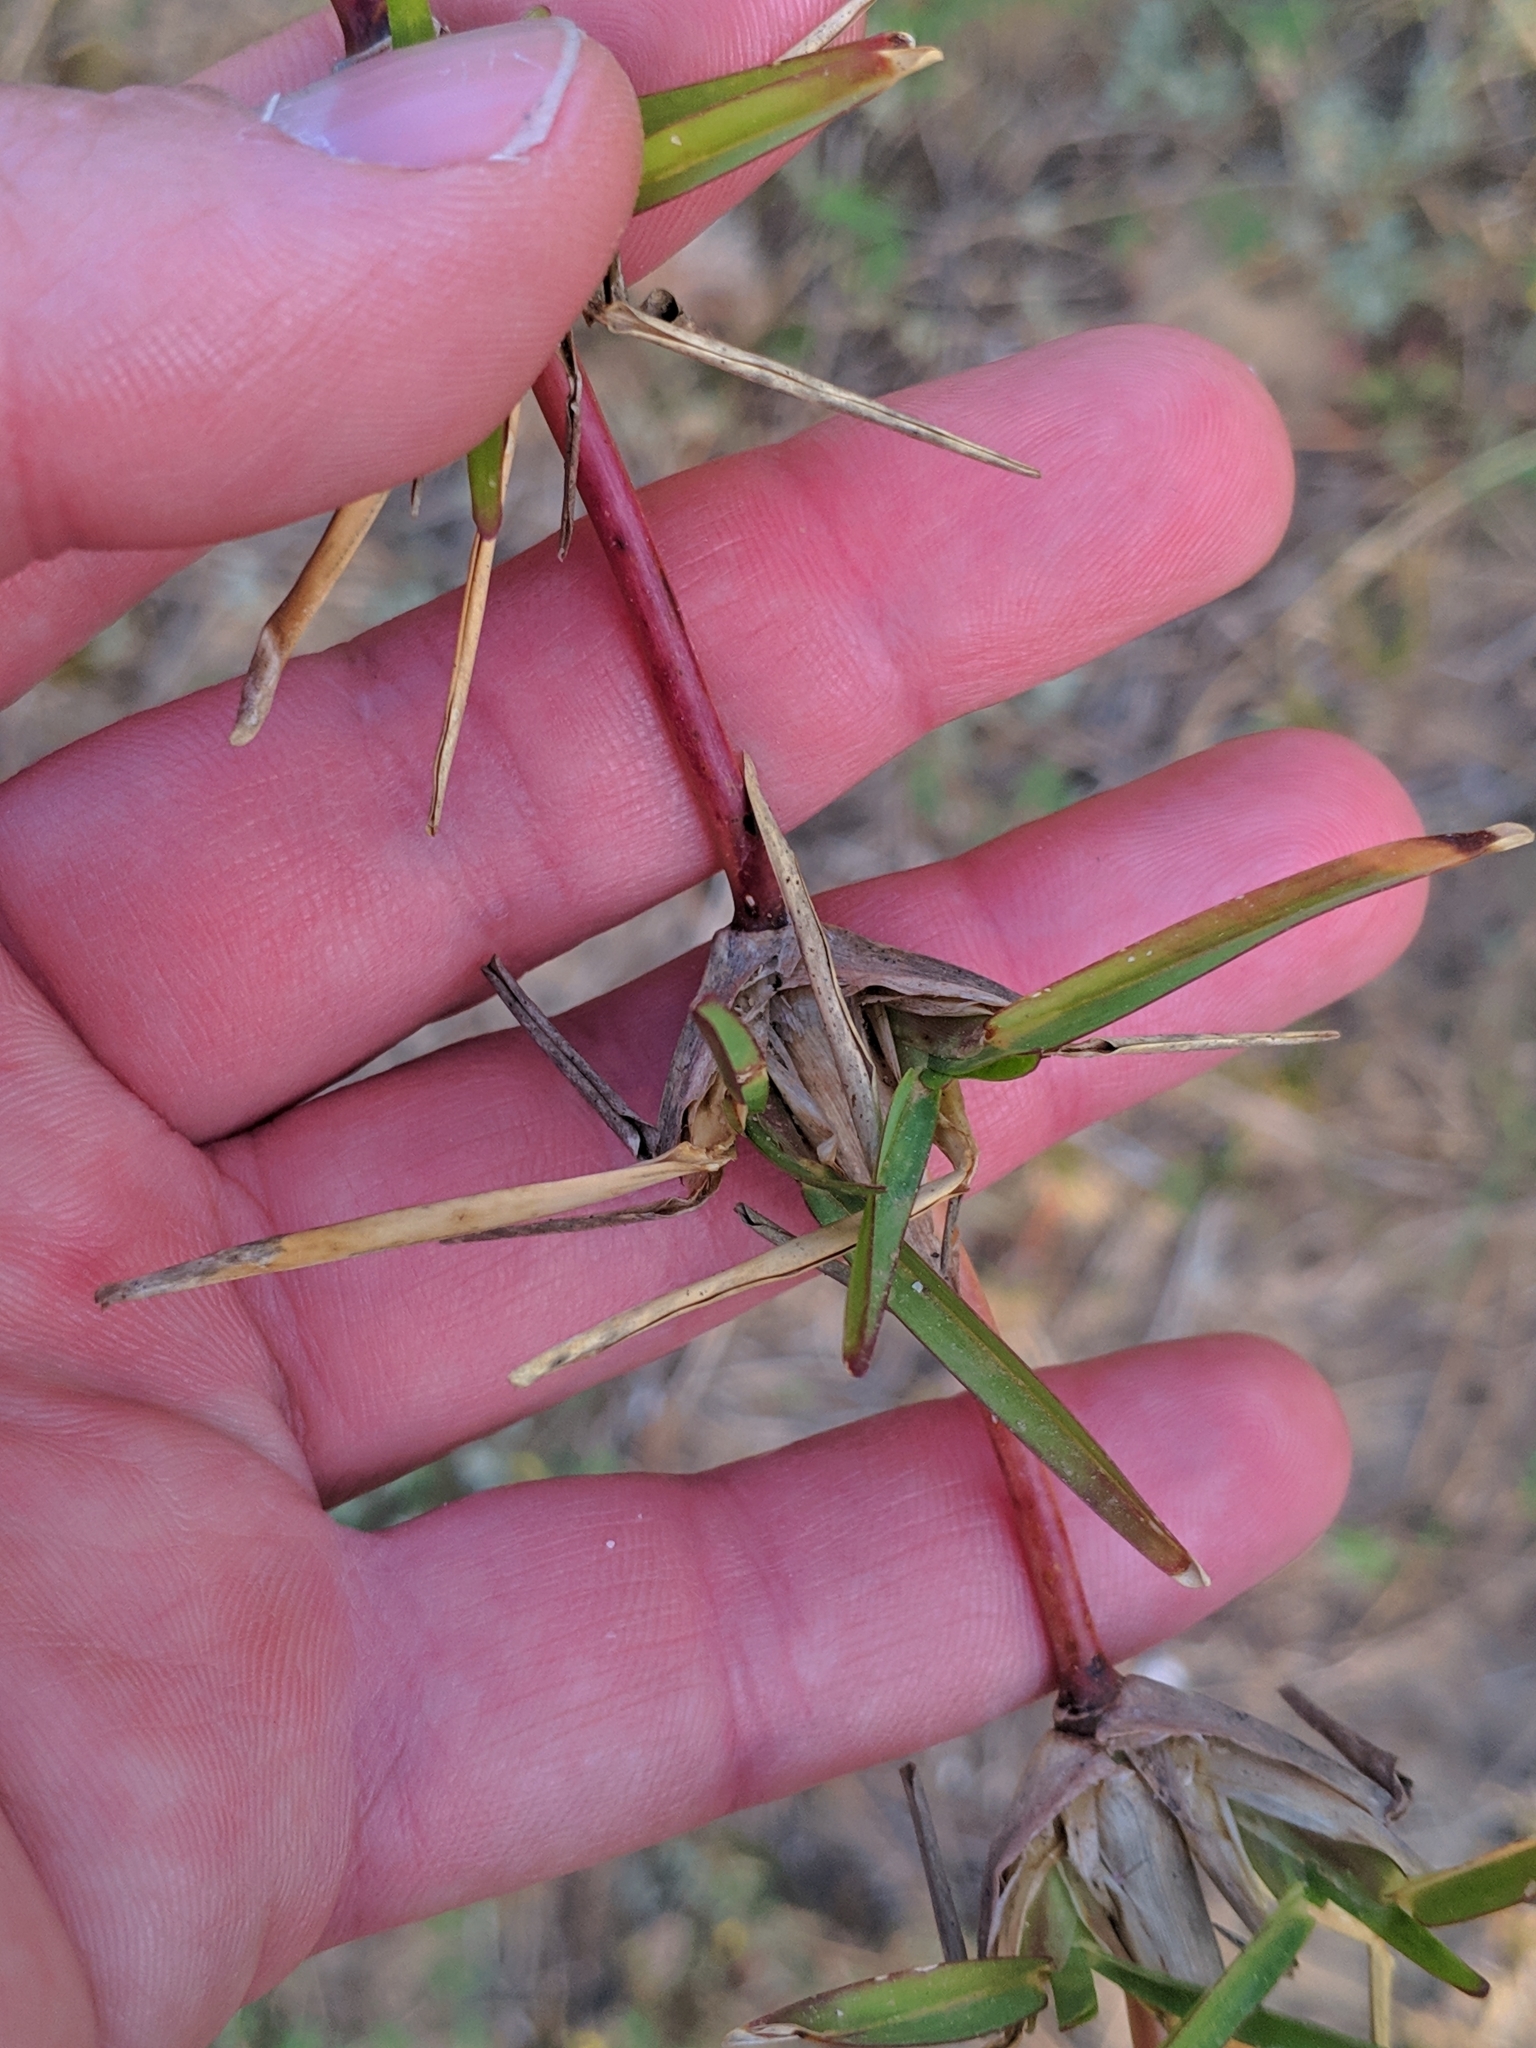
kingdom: Plantae
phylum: Tracheophyta
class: Liliopsida
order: Poales
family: Poaceae
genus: Stenotaphrum
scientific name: Stenotaphrum secundatum
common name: St. augustine grass
